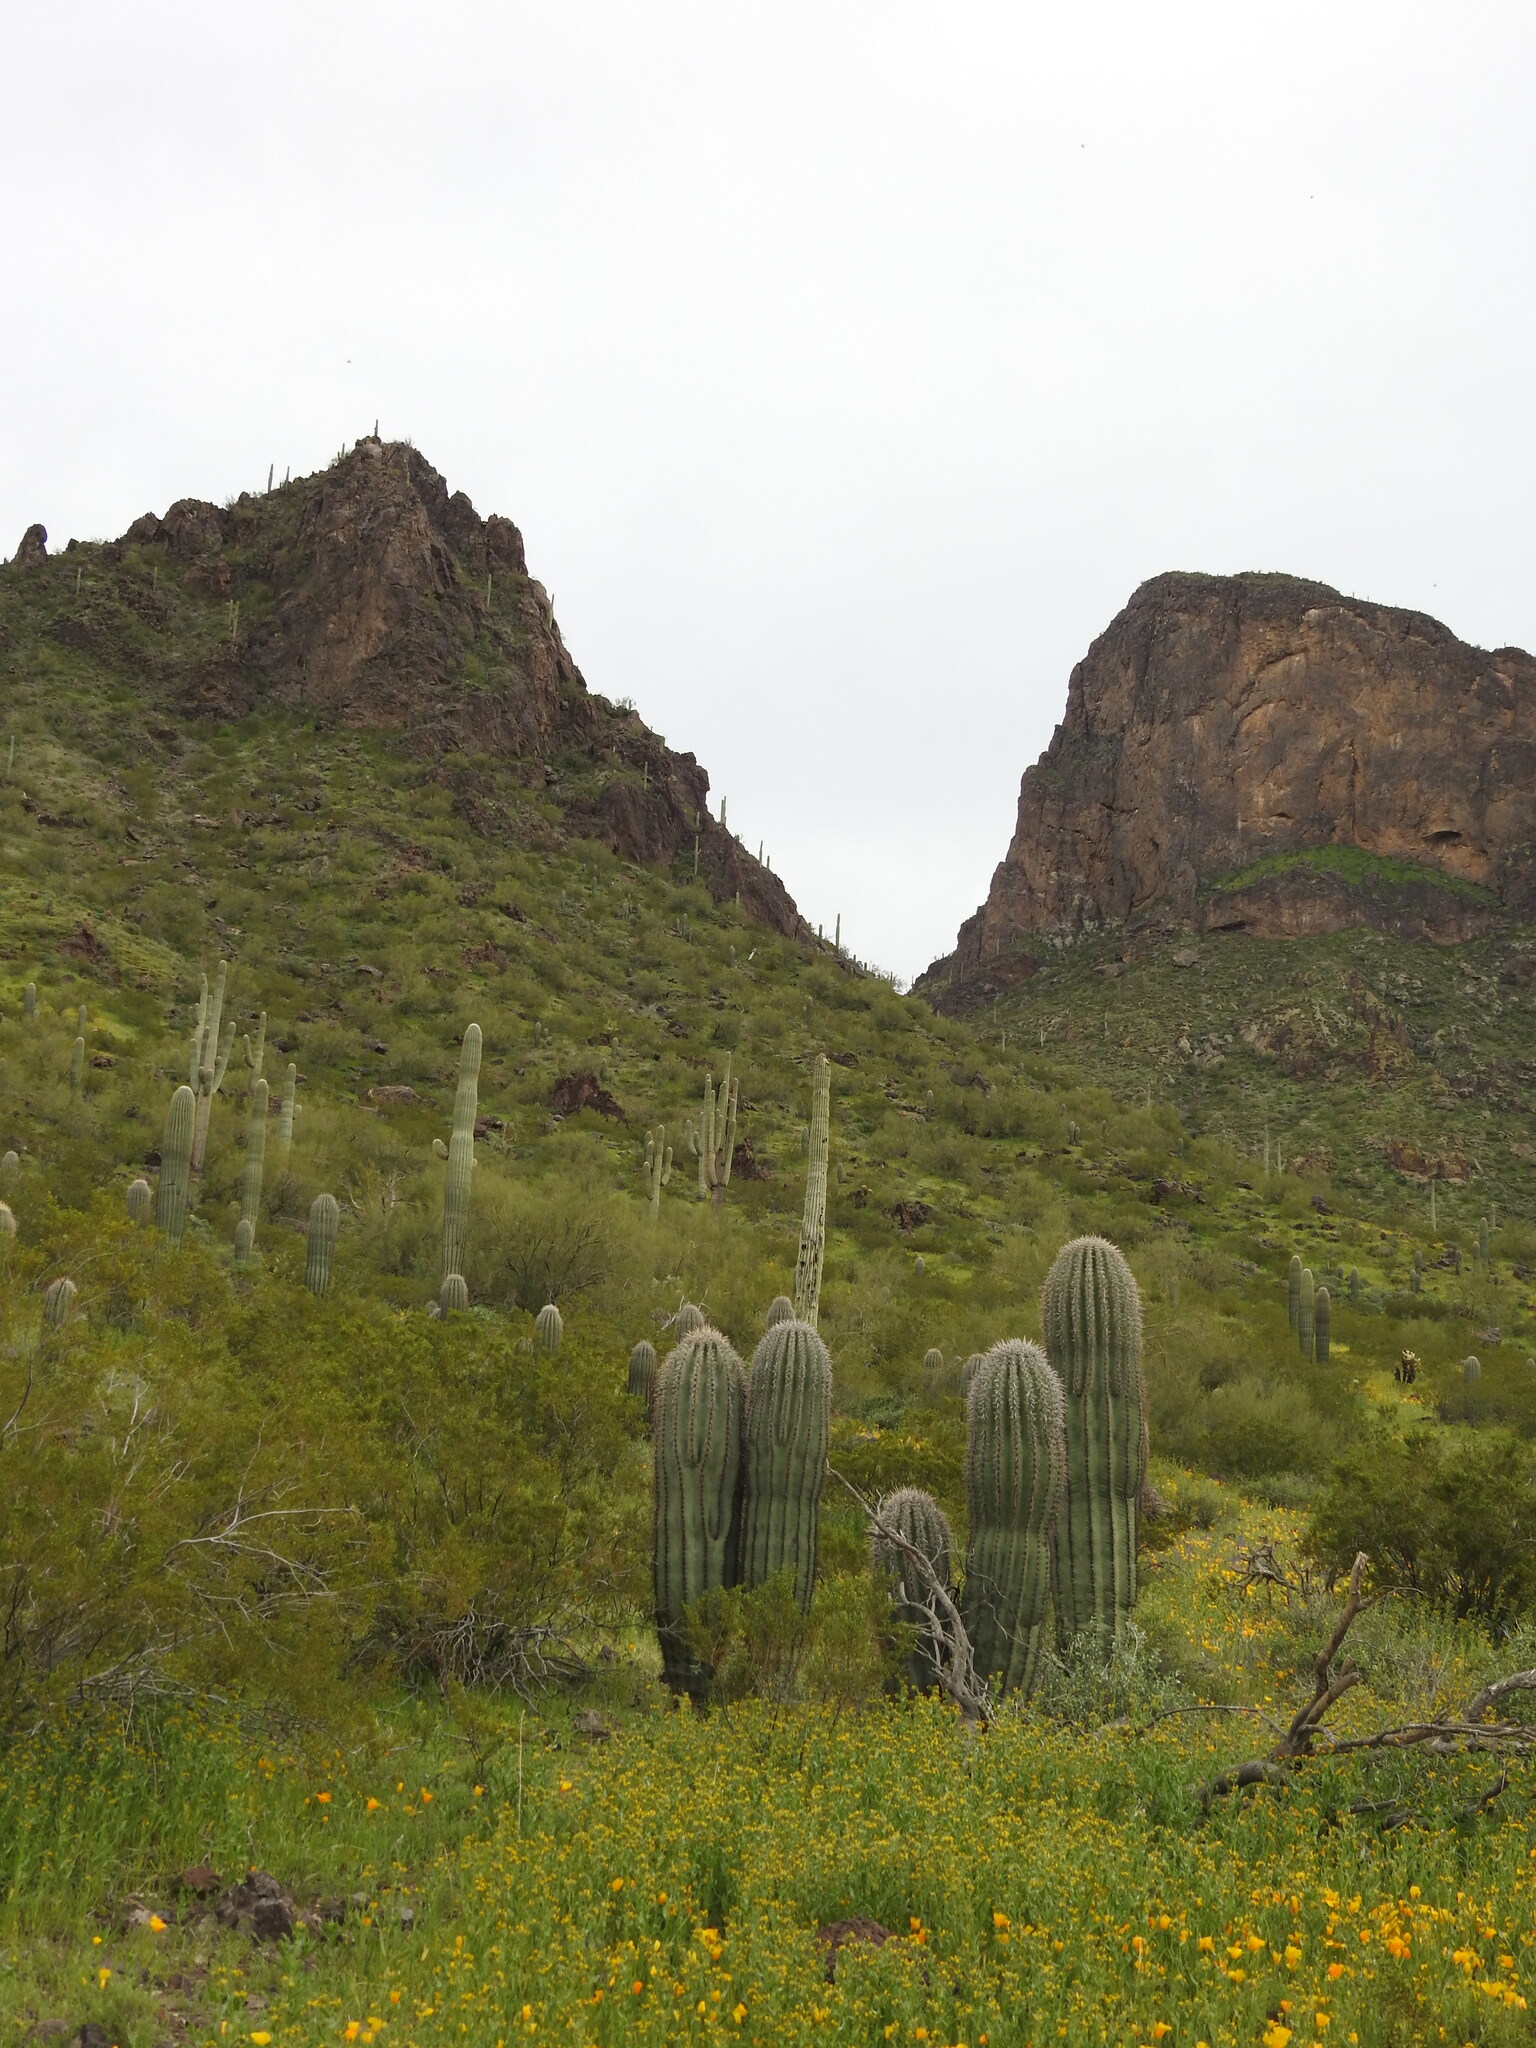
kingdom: Plantae
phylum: Tracheophyta
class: Magnoliopsida
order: Caryophyllales
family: Cactaceae
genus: Carnegiea
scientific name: Carnegiea gigantea
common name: Saguaro
